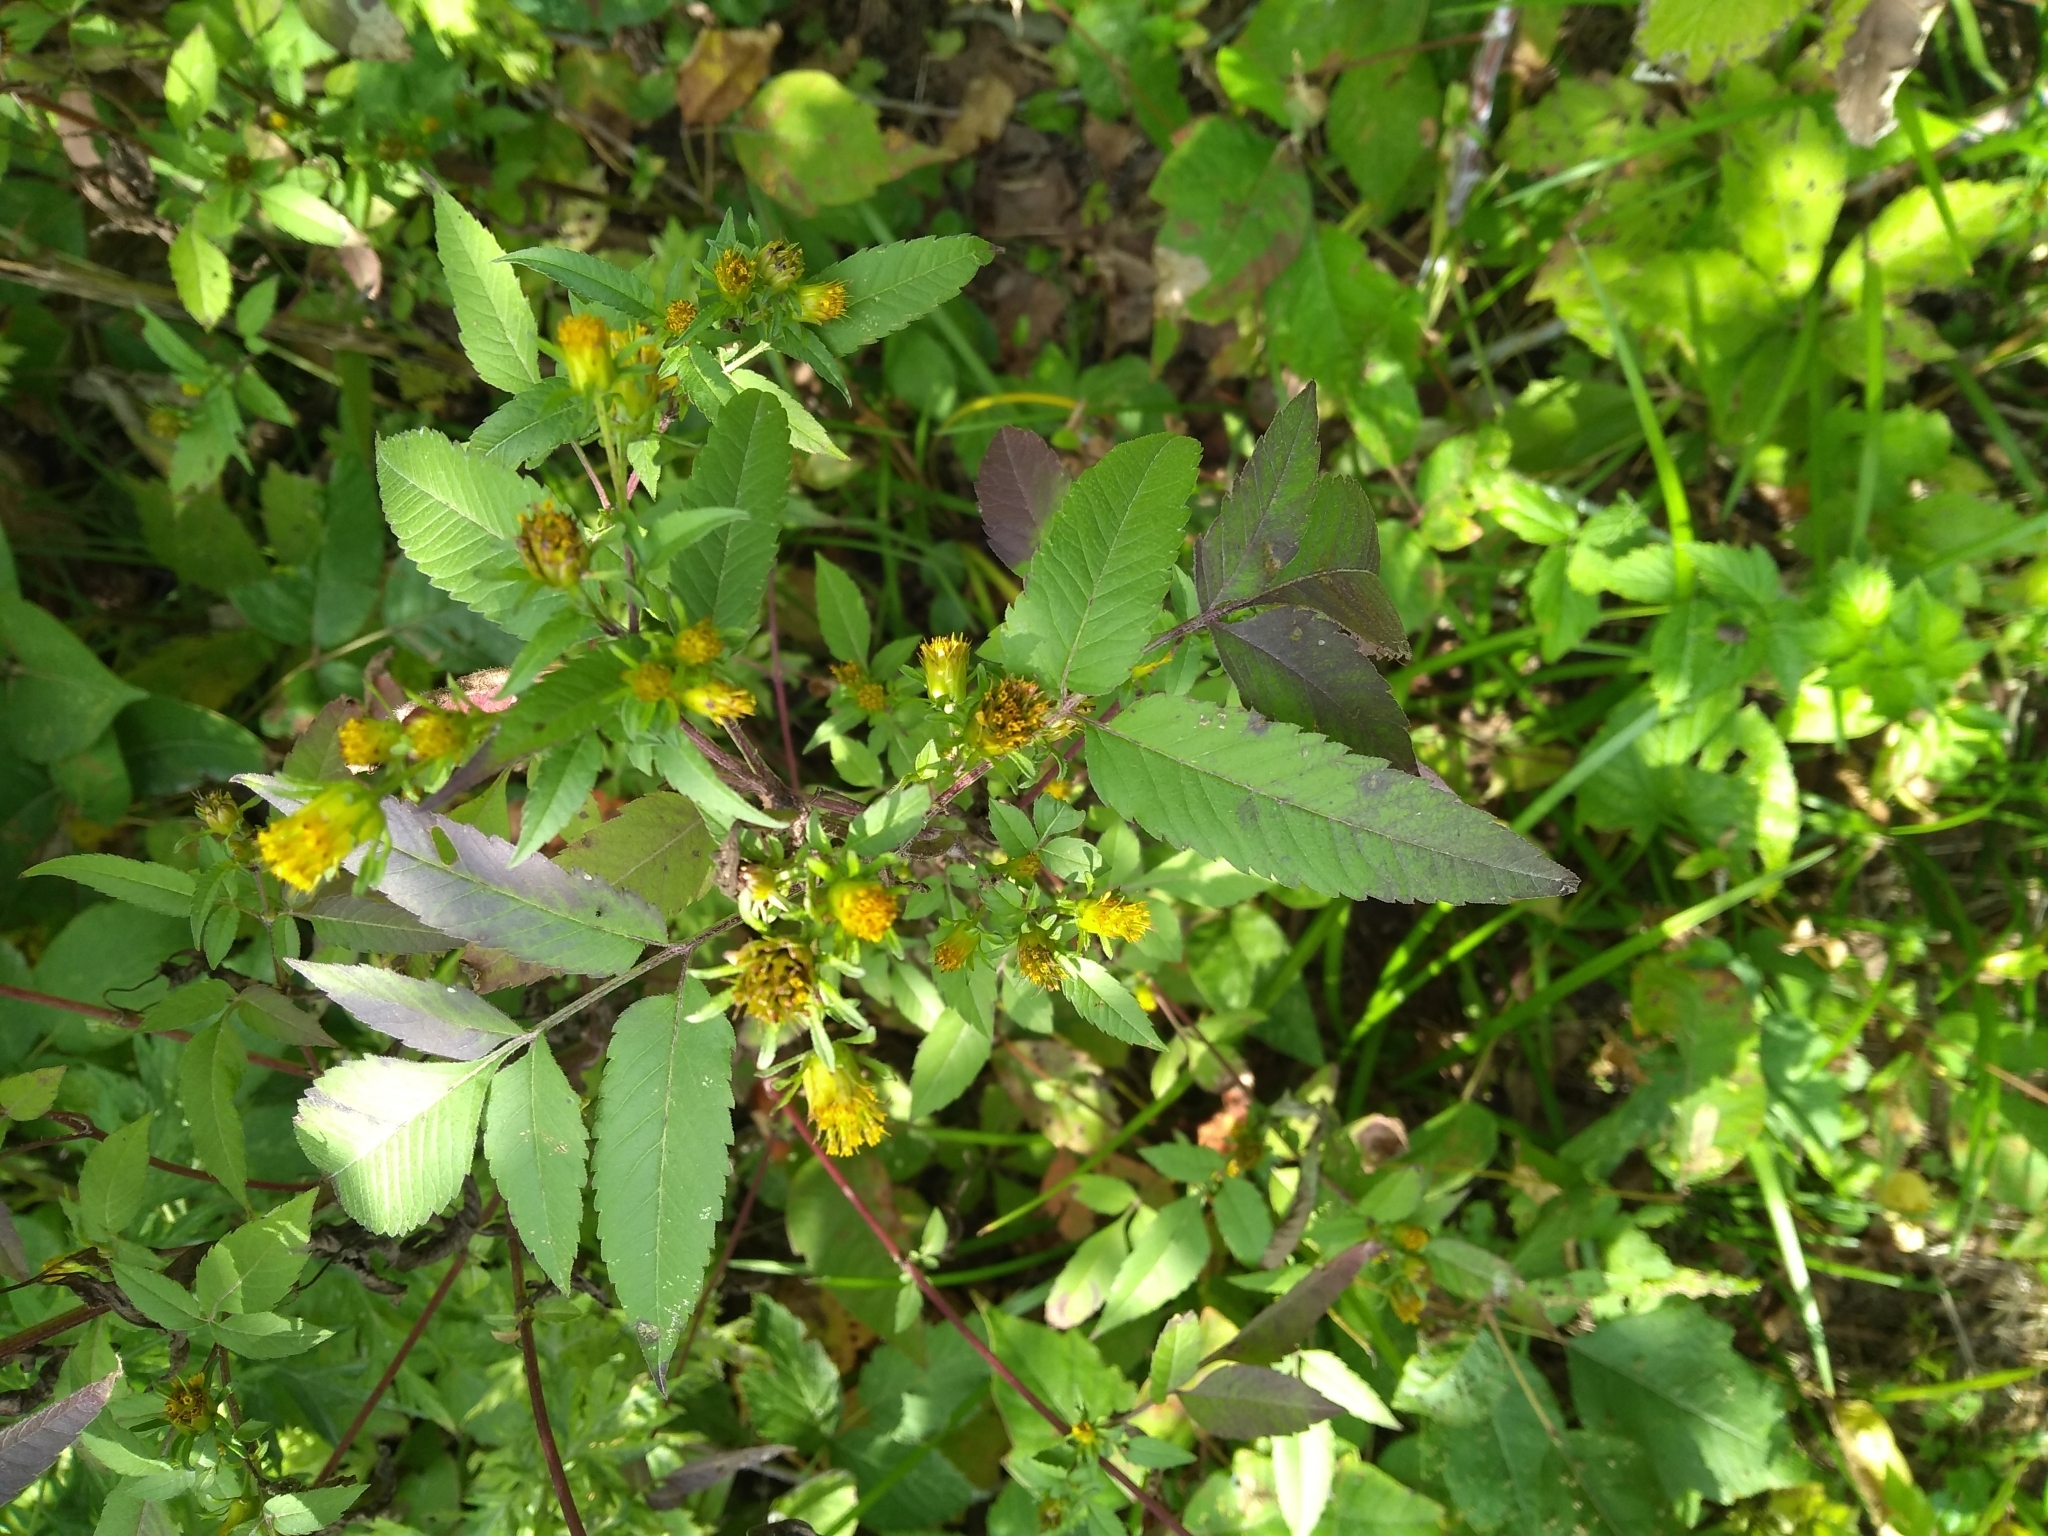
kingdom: Plantae
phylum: Tracheophyta
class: Magnoliopsida
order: Asterales
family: Asteraceae
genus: Bidens
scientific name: Bidens frondosa
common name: Beggarticks
